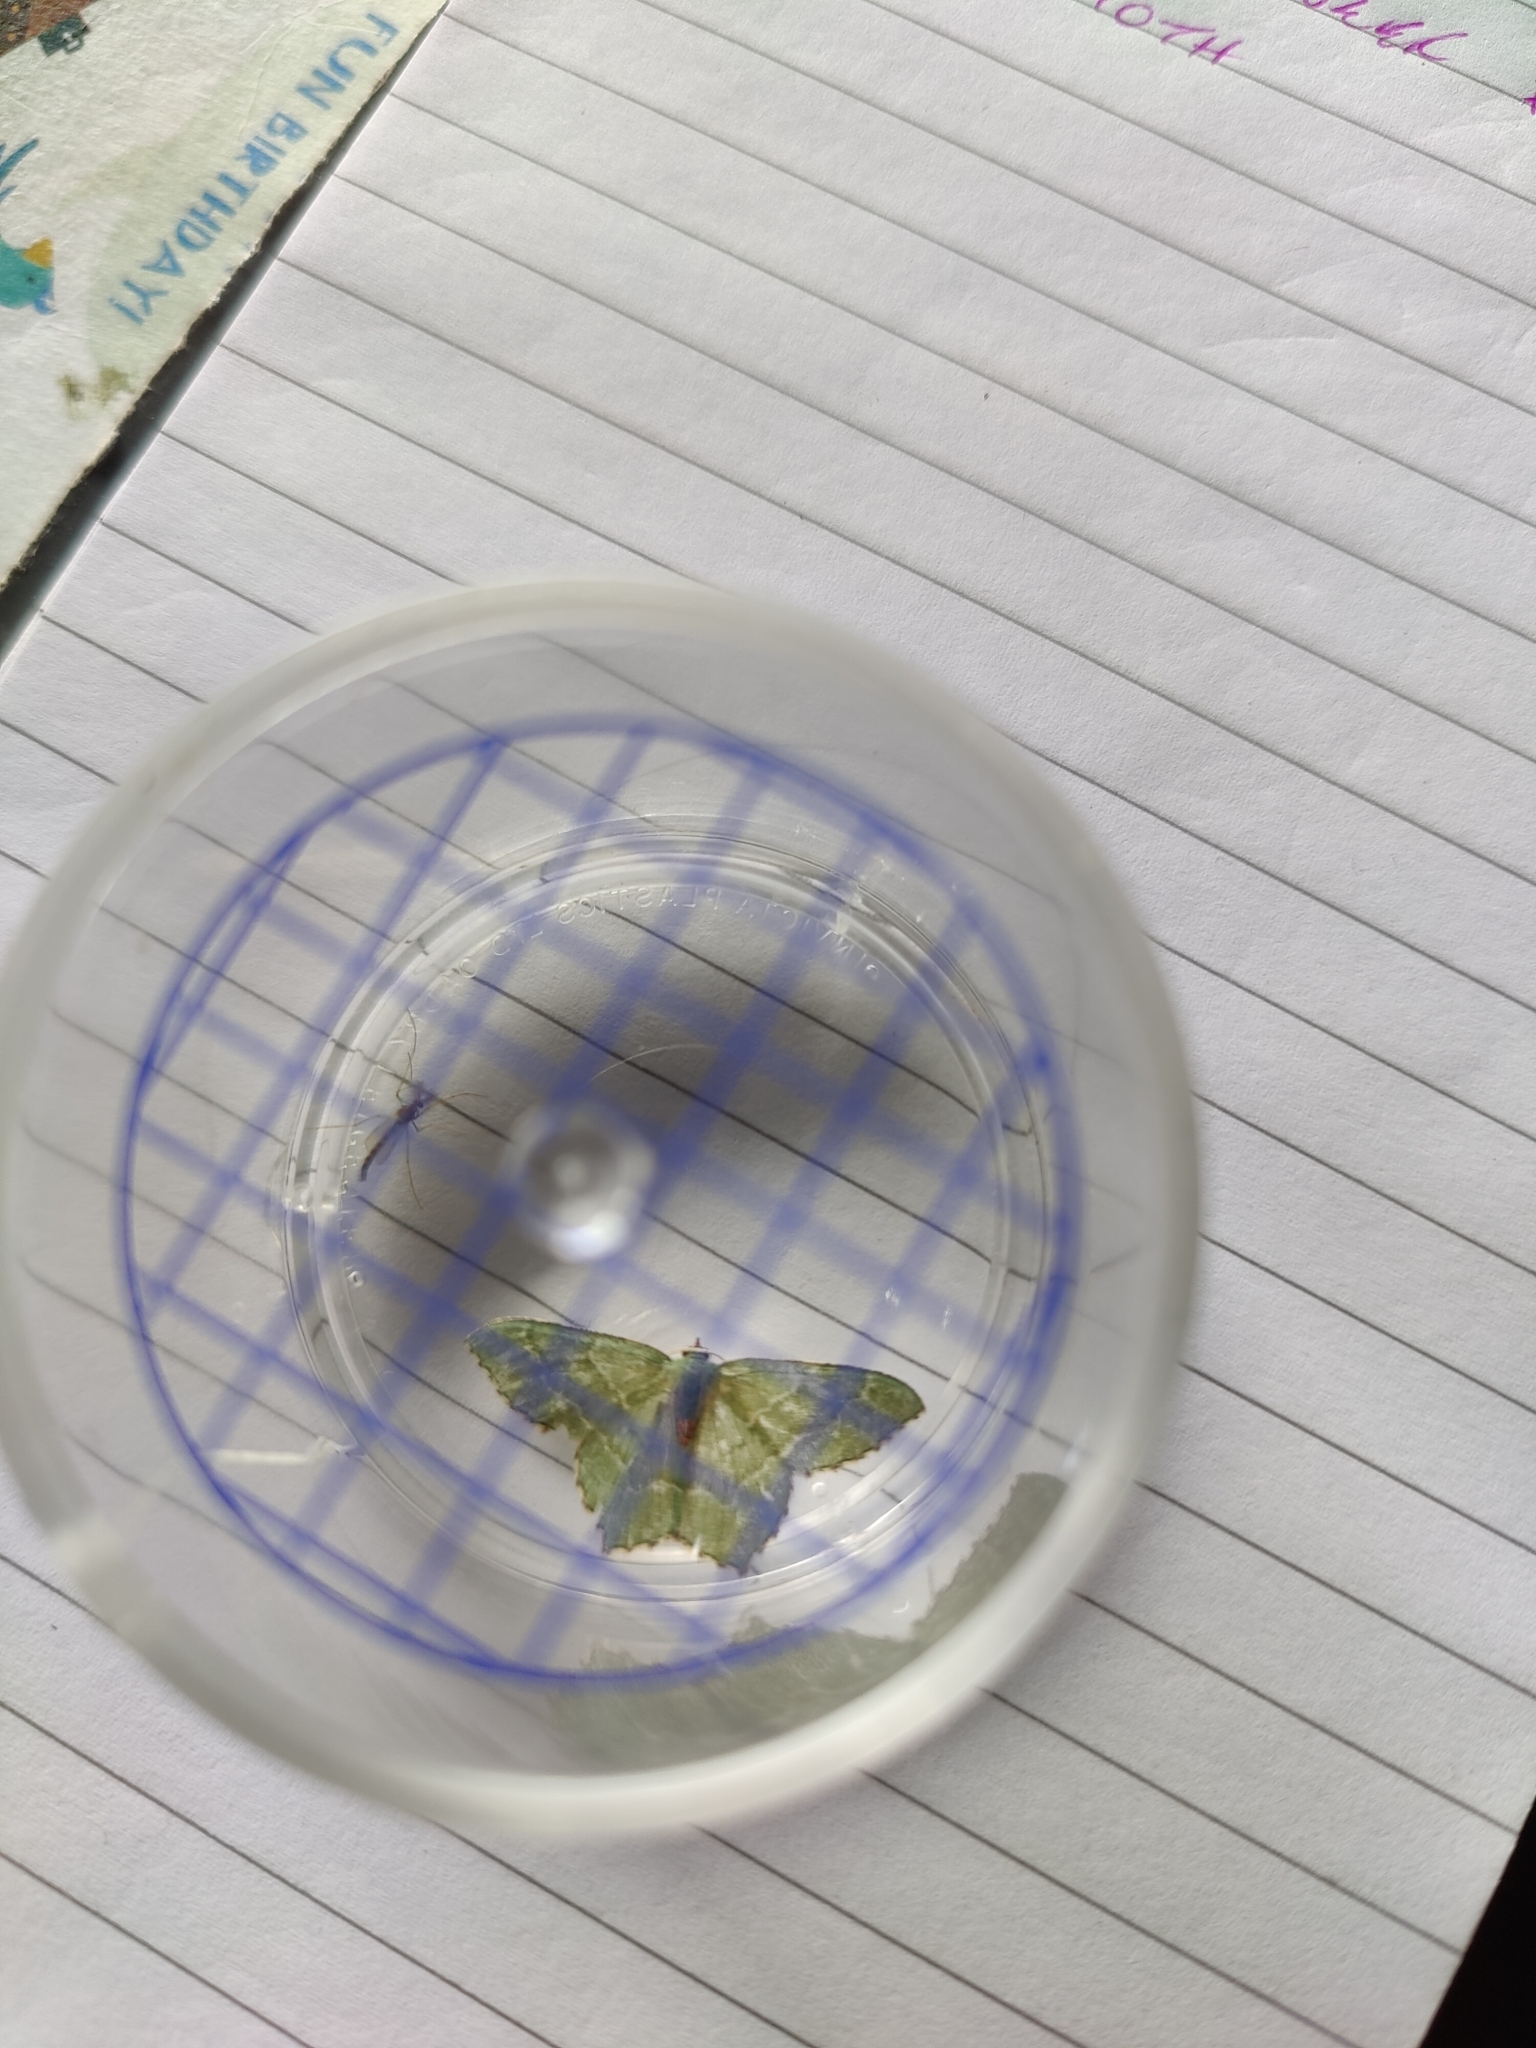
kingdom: Animalia
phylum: Arthropoda
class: Insecta
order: Lepidoptera
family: Geometridae
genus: Hemithea
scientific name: Hemithea aestivaria
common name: Common emerald
